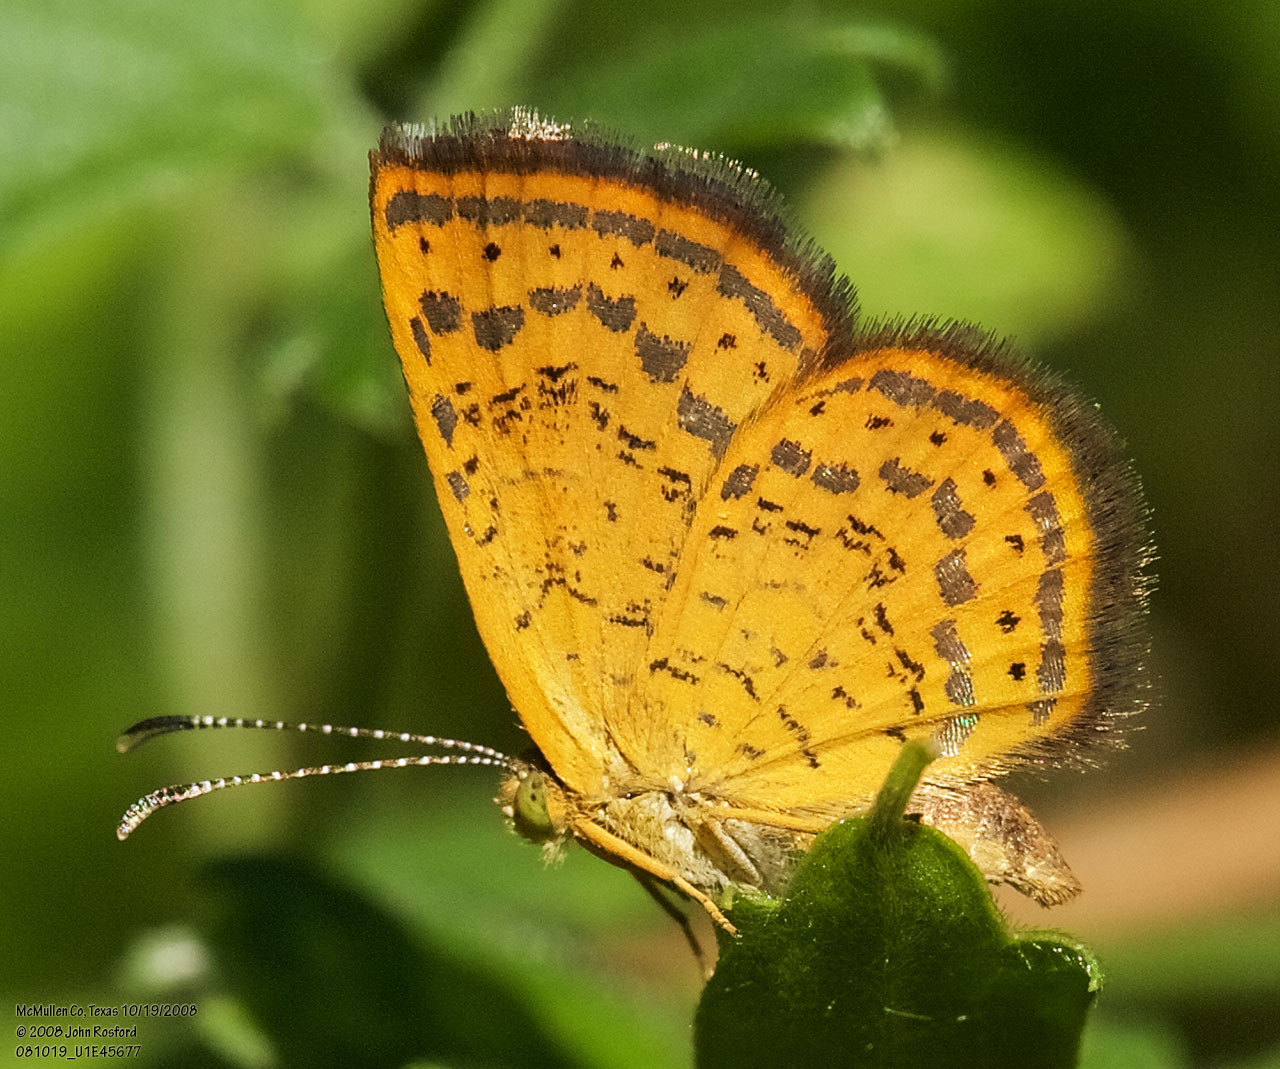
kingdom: Animalia
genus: Calephelis
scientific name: Calephelis perditalis
